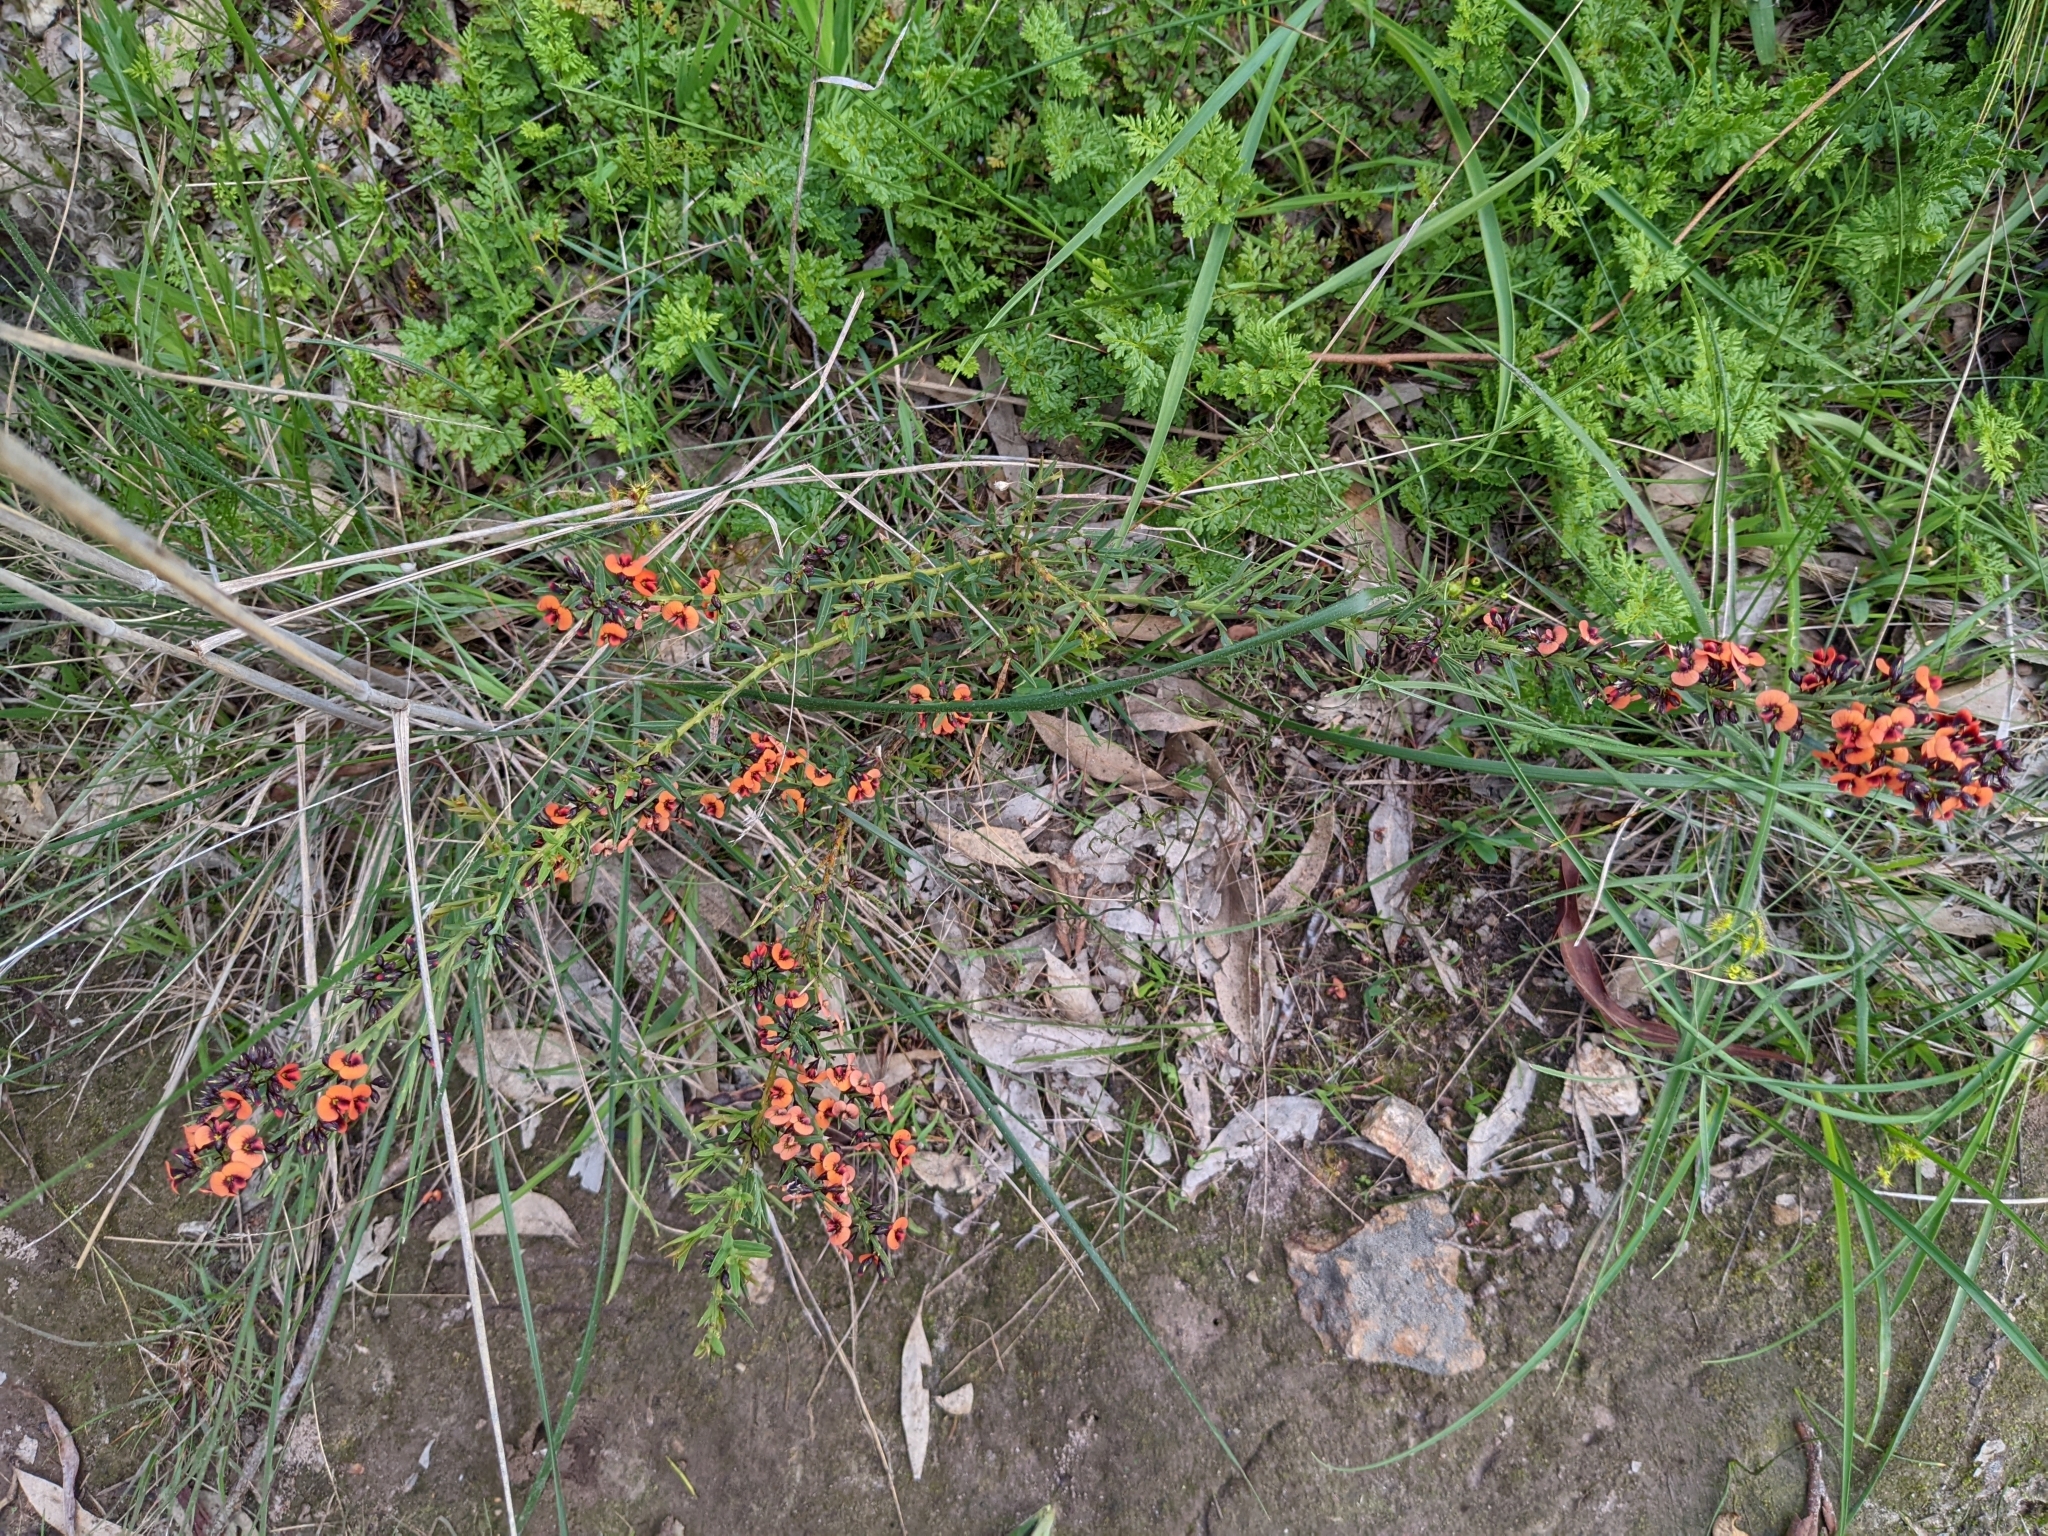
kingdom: Plantae
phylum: Tracheophyta
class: Magnoliopsida
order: Fabales
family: Fabaceae
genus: Daviesia
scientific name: Daviesia ulicifolia
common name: Gorse bitter-pea
